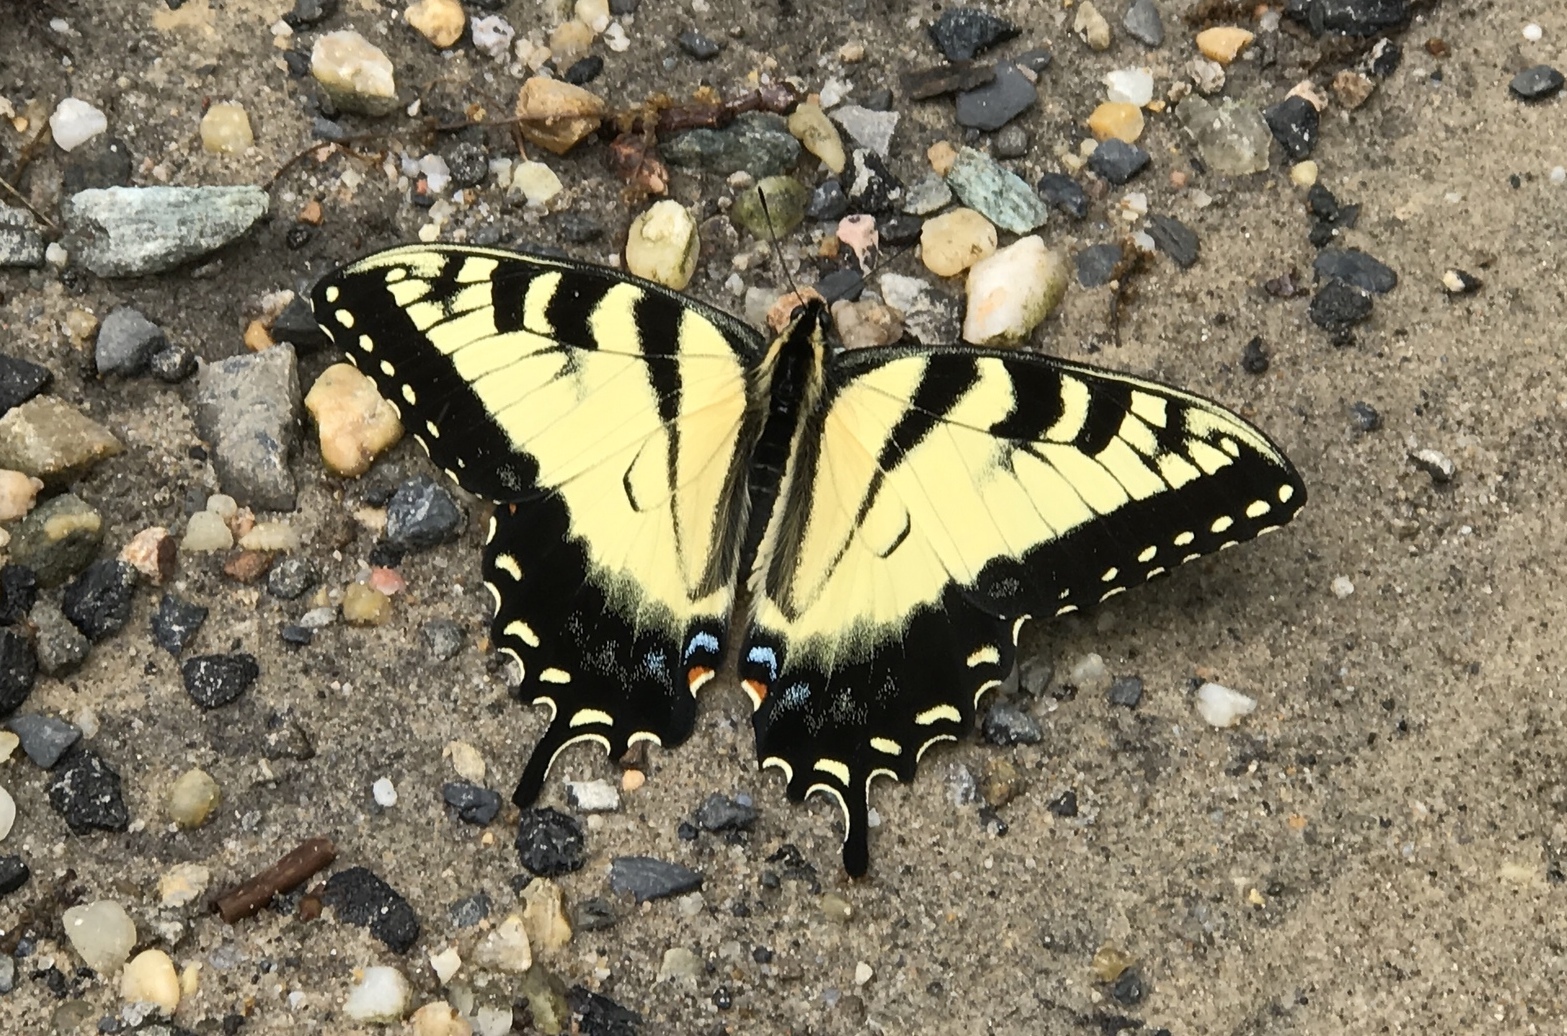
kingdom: Animalia
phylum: Arthropoda
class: Insecta
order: Lepidoptera
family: Papilionidae
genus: Papilio
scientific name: Papilio glaucus
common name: Tiger swallowtail
